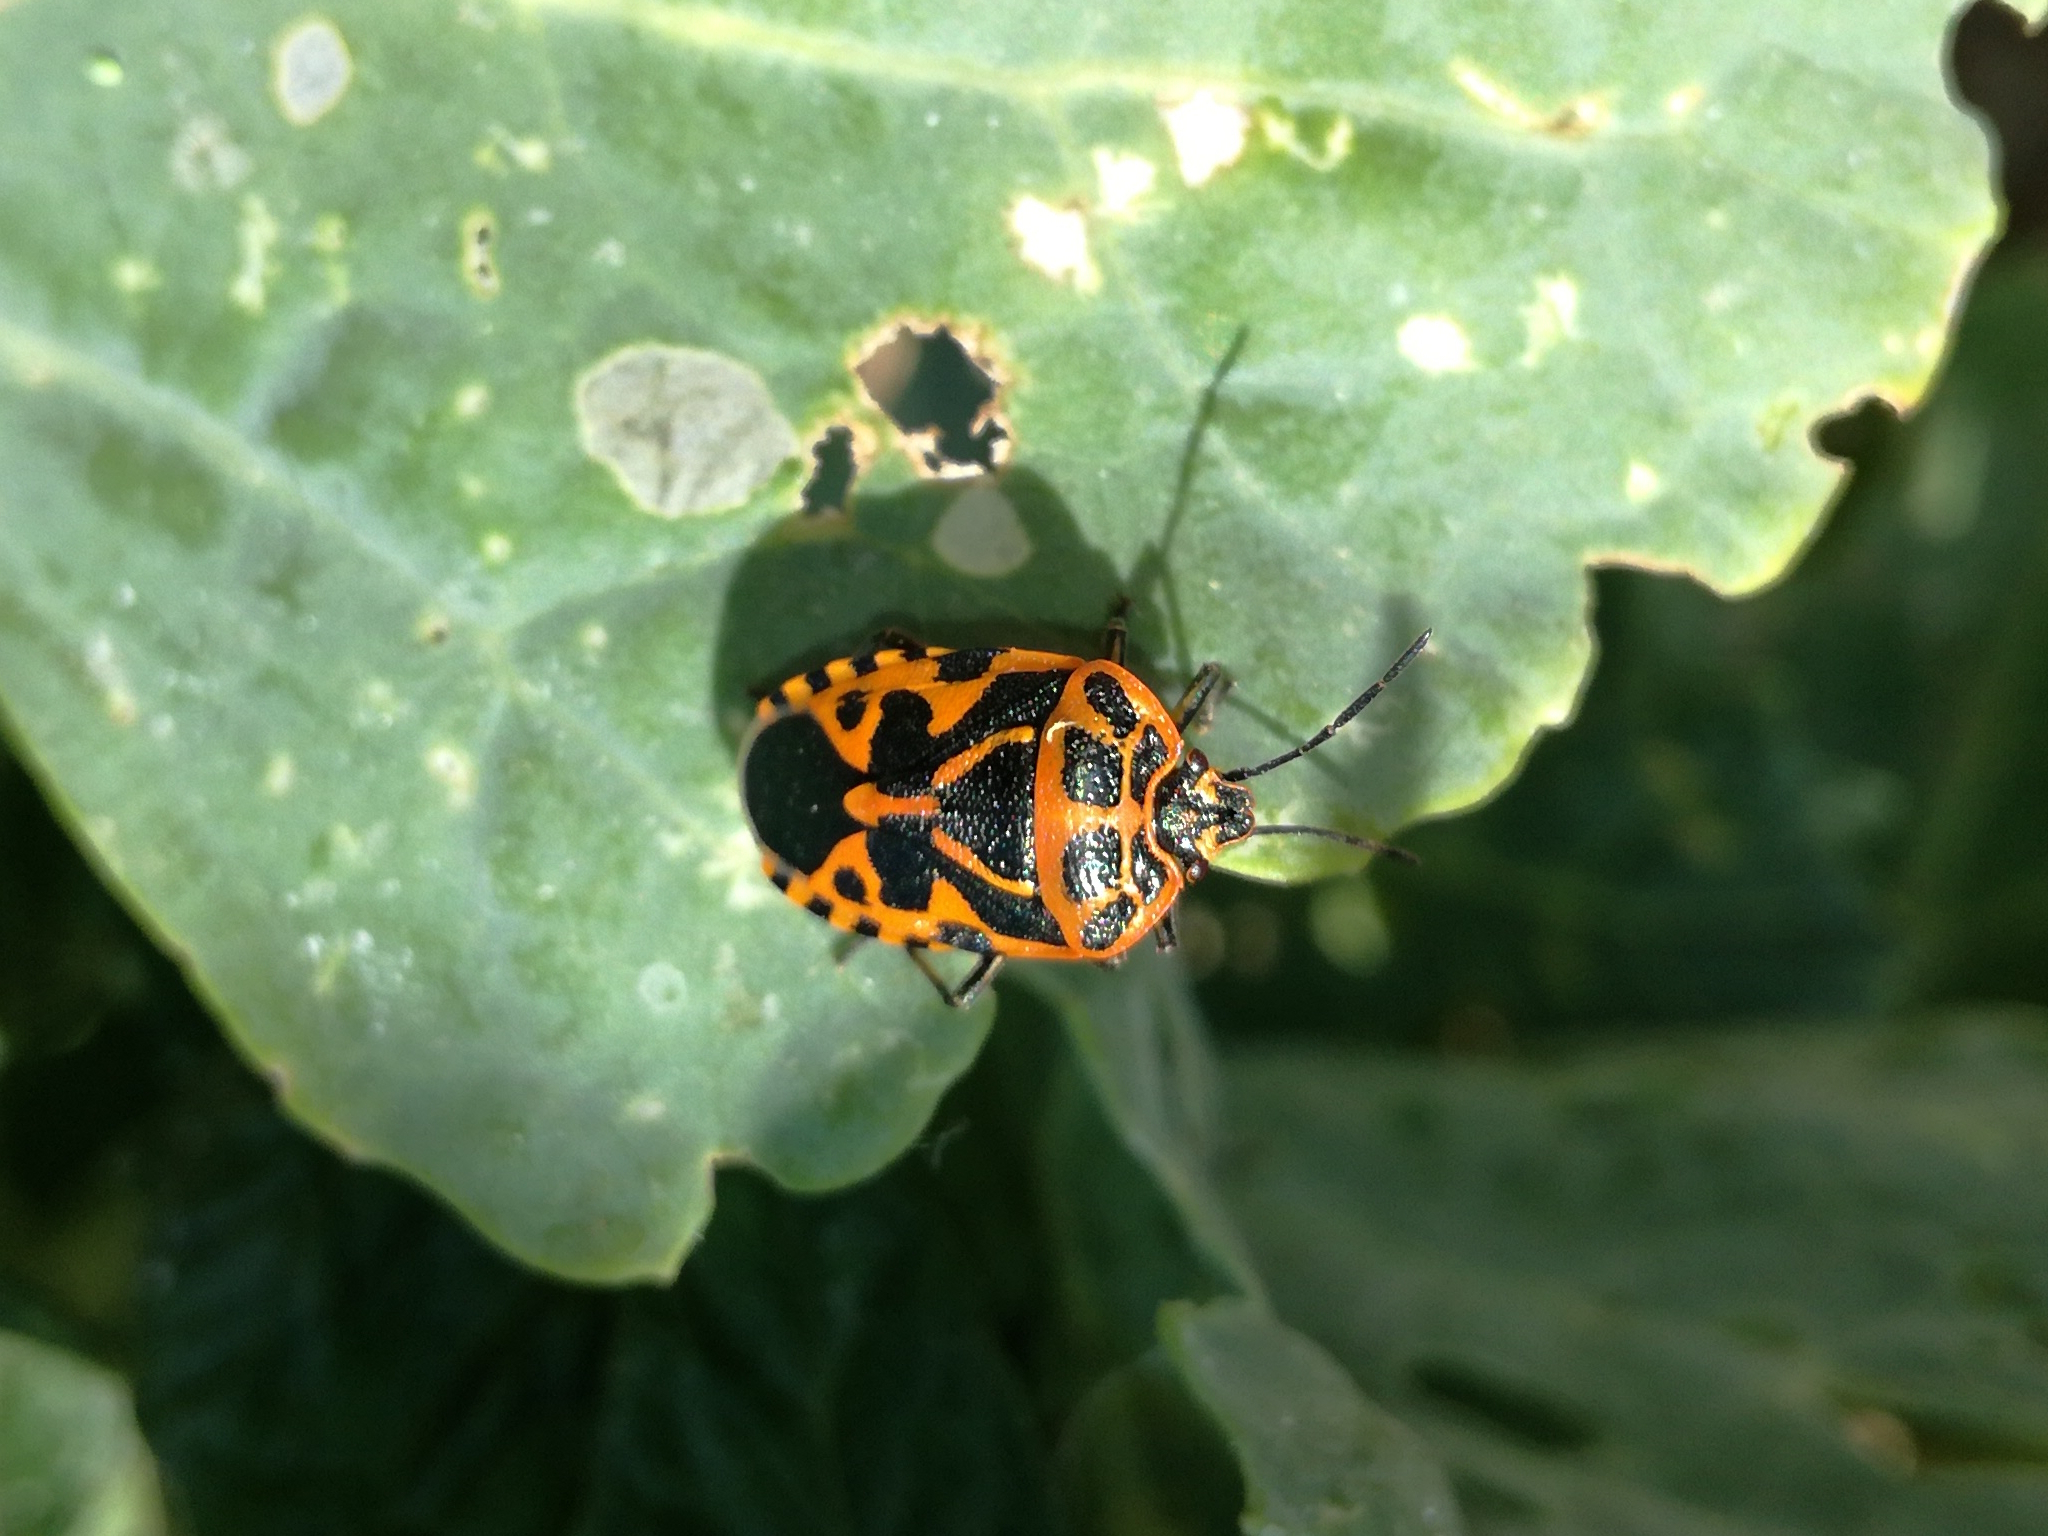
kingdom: Animalia
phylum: Arthropoda
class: Insecta
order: Hemiptera
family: Pentatomidae
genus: Eurydema
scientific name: Eurydema ventralis
